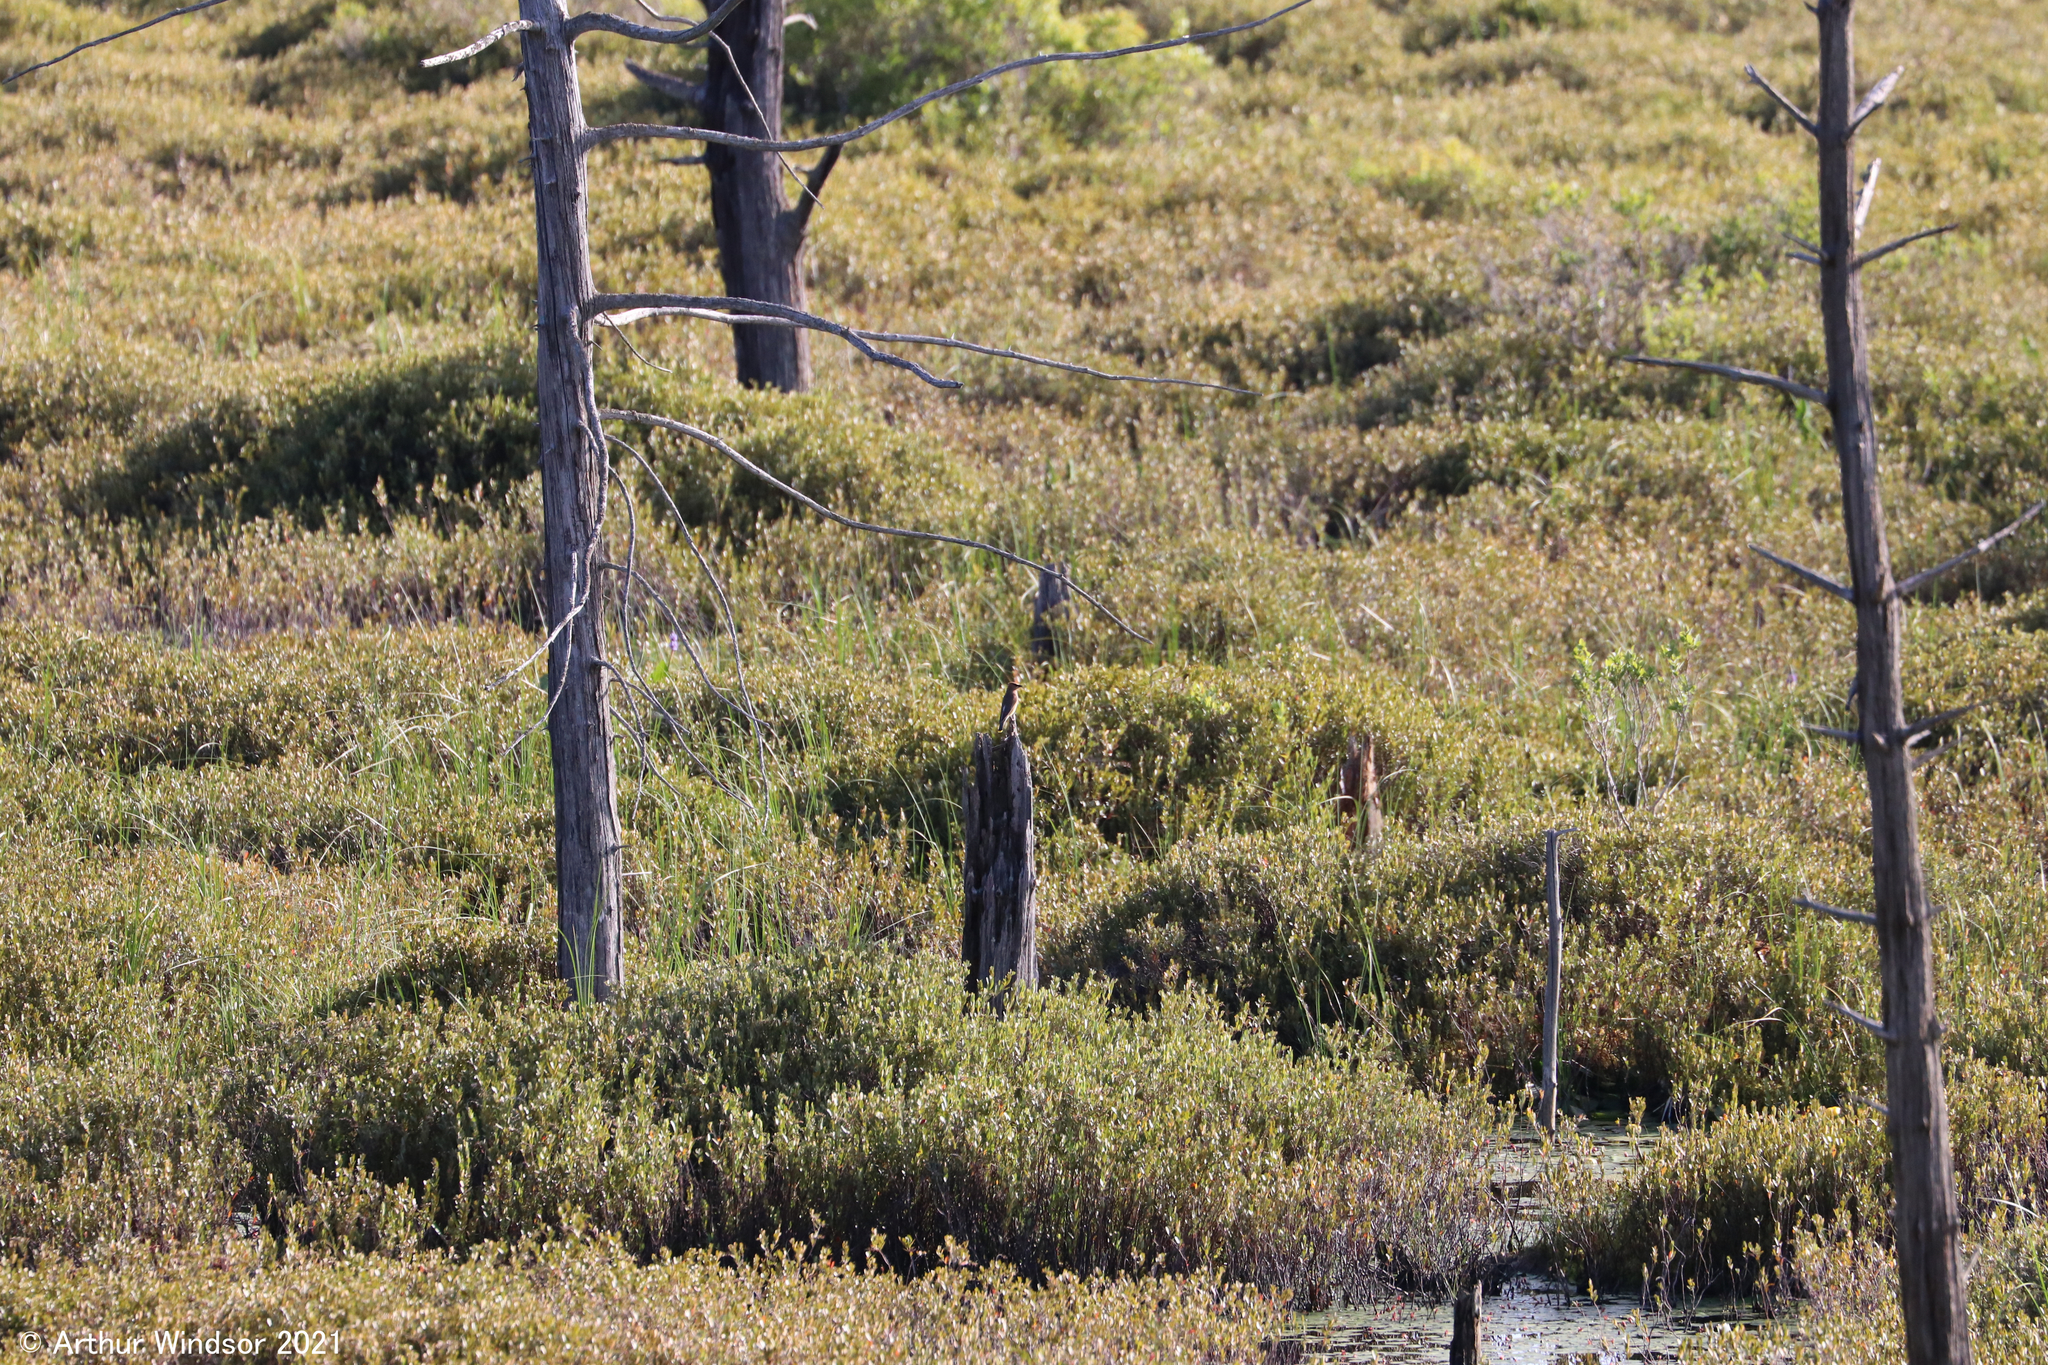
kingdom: Animalia
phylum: Chordata
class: Aves
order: Passeriformes
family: Bombycillidae
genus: Bombycilla
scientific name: Bombycilla cedrorum
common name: Cedar waxwing
